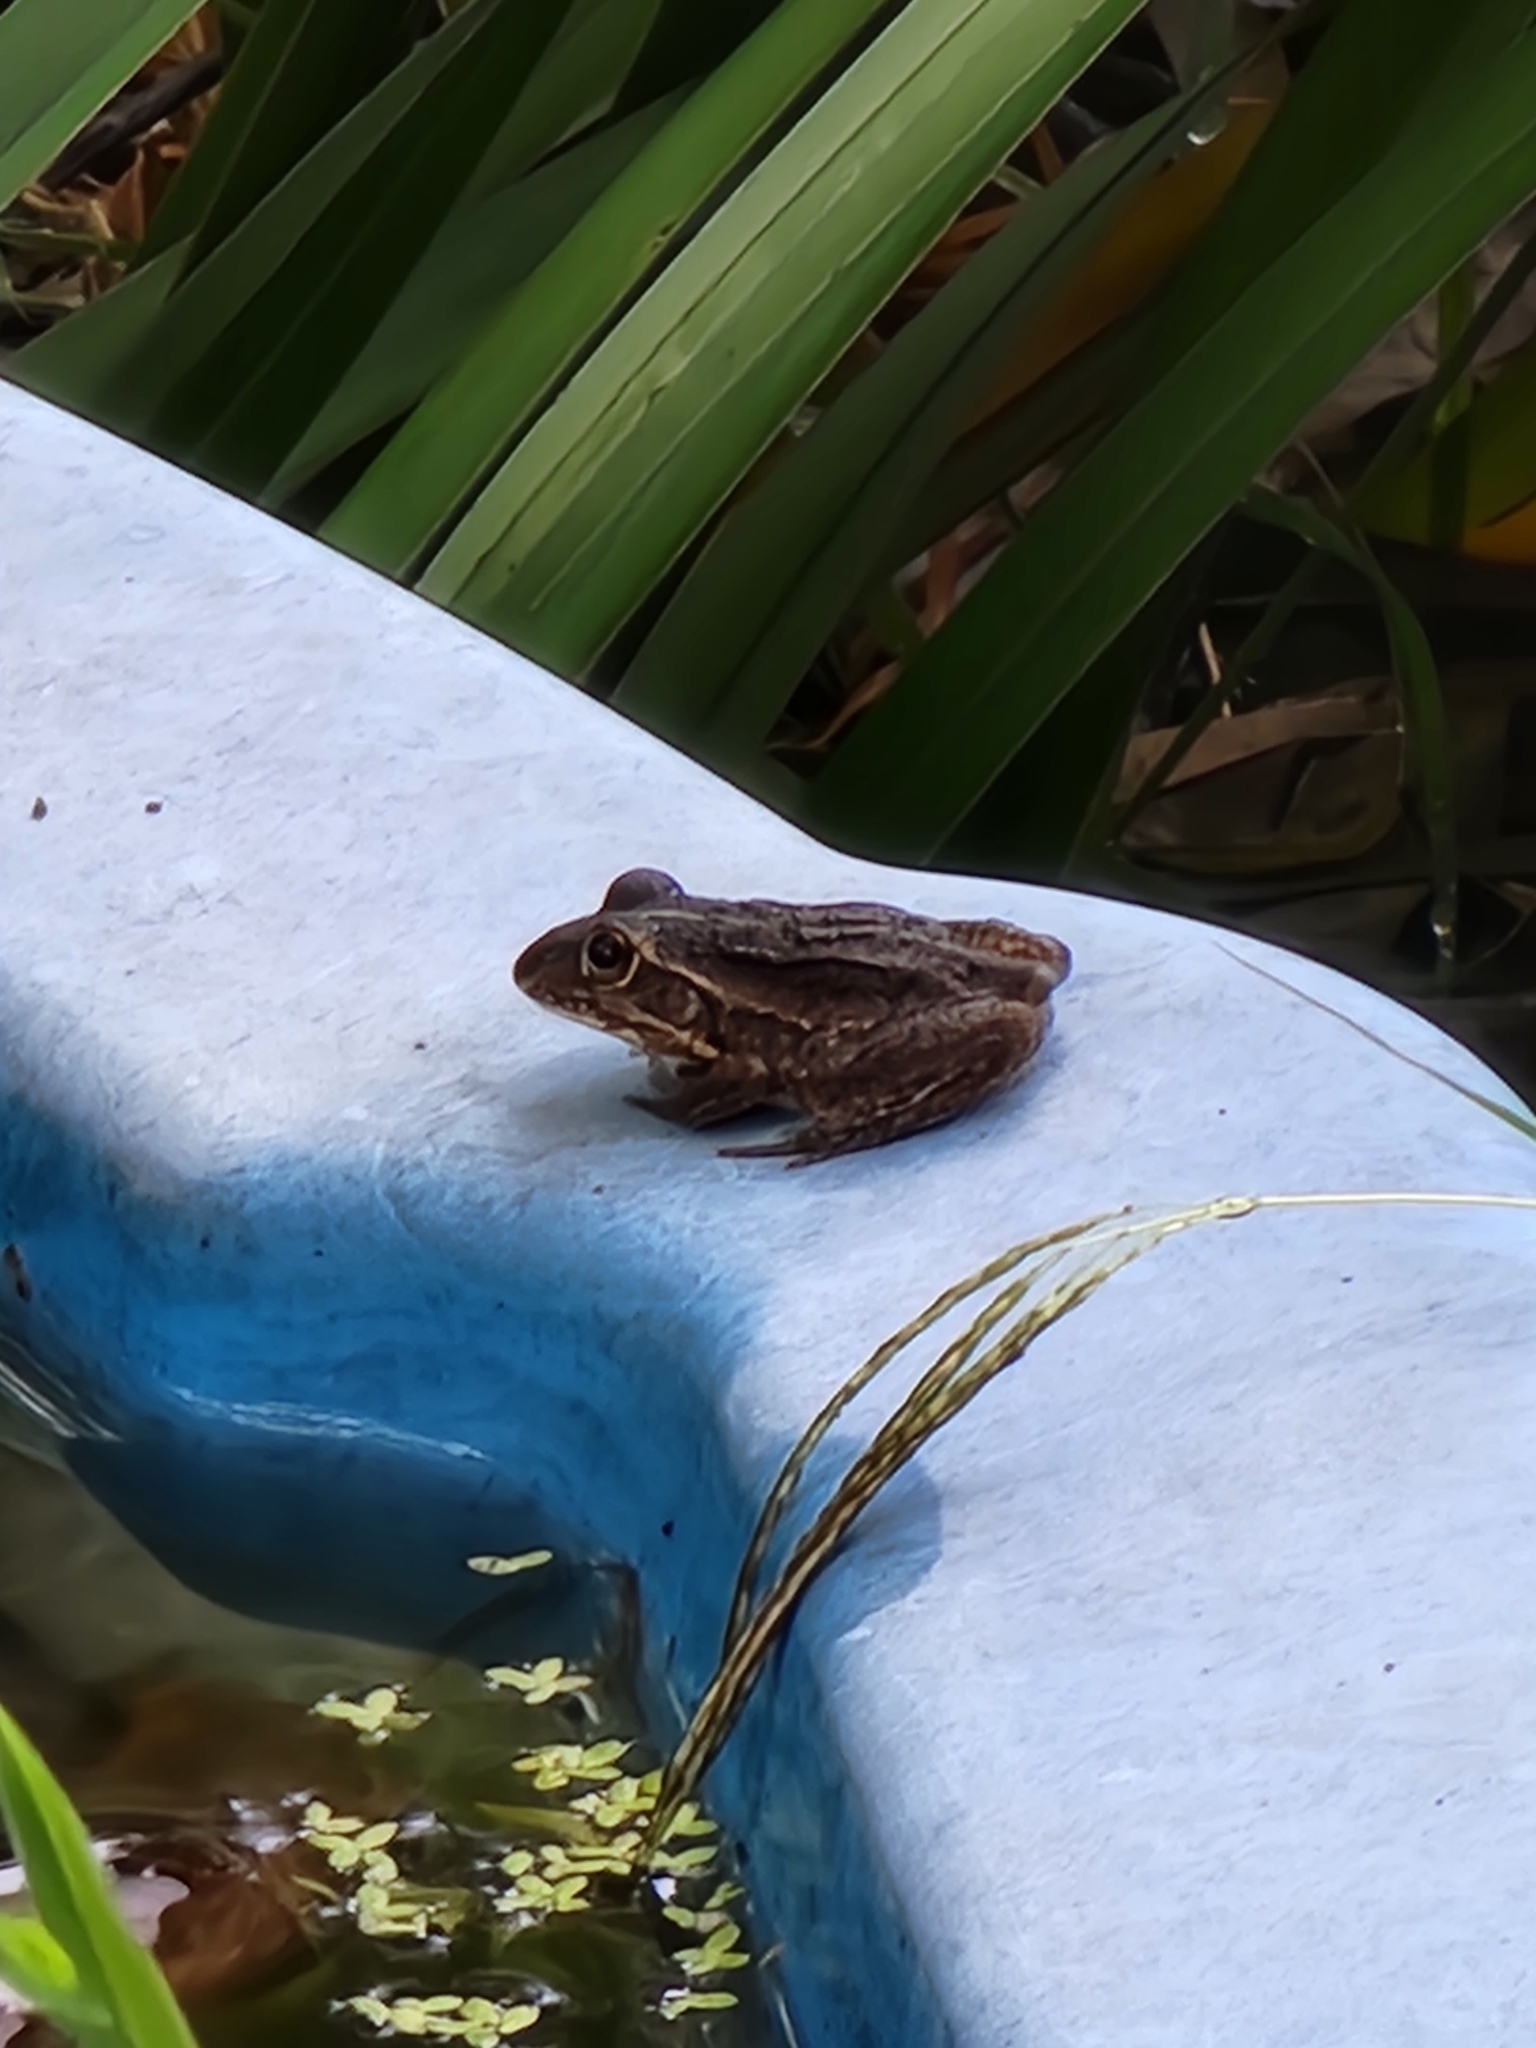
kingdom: Animalia
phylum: Chordata
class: Amphibia
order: Anura
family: Pelodryadidae
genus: Ranoidea
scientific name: Ranoidea alboguttata
